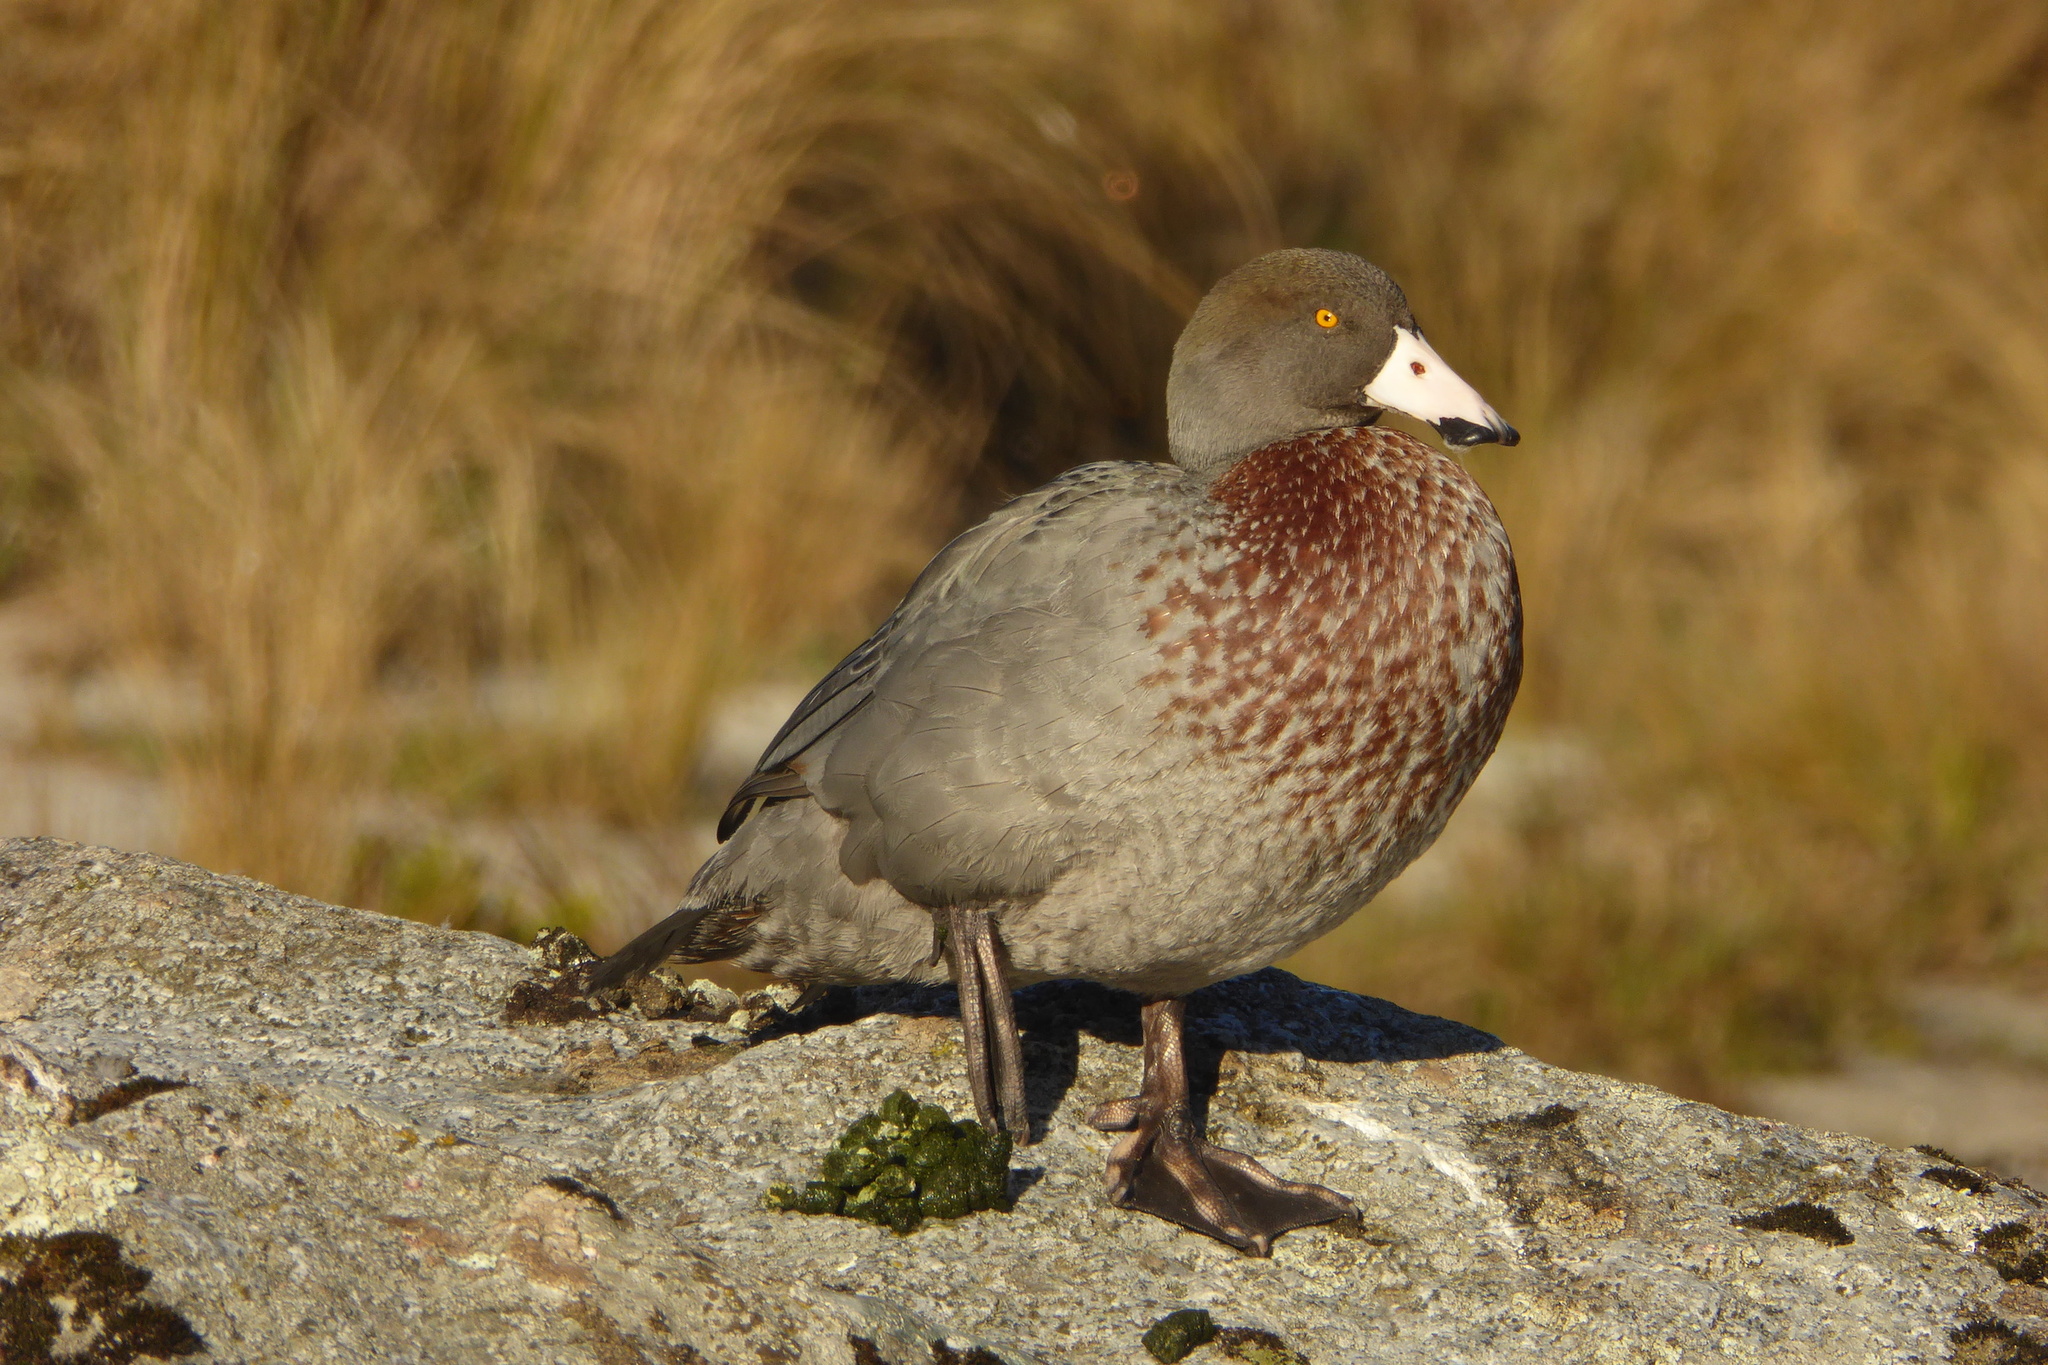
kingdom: Animalia
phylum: Chordata
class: Aves
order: Anseriformes
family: Anatidae
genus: Hymenolaimus
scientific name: Hymenolaimus malacorhynchos
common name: Blue duck
